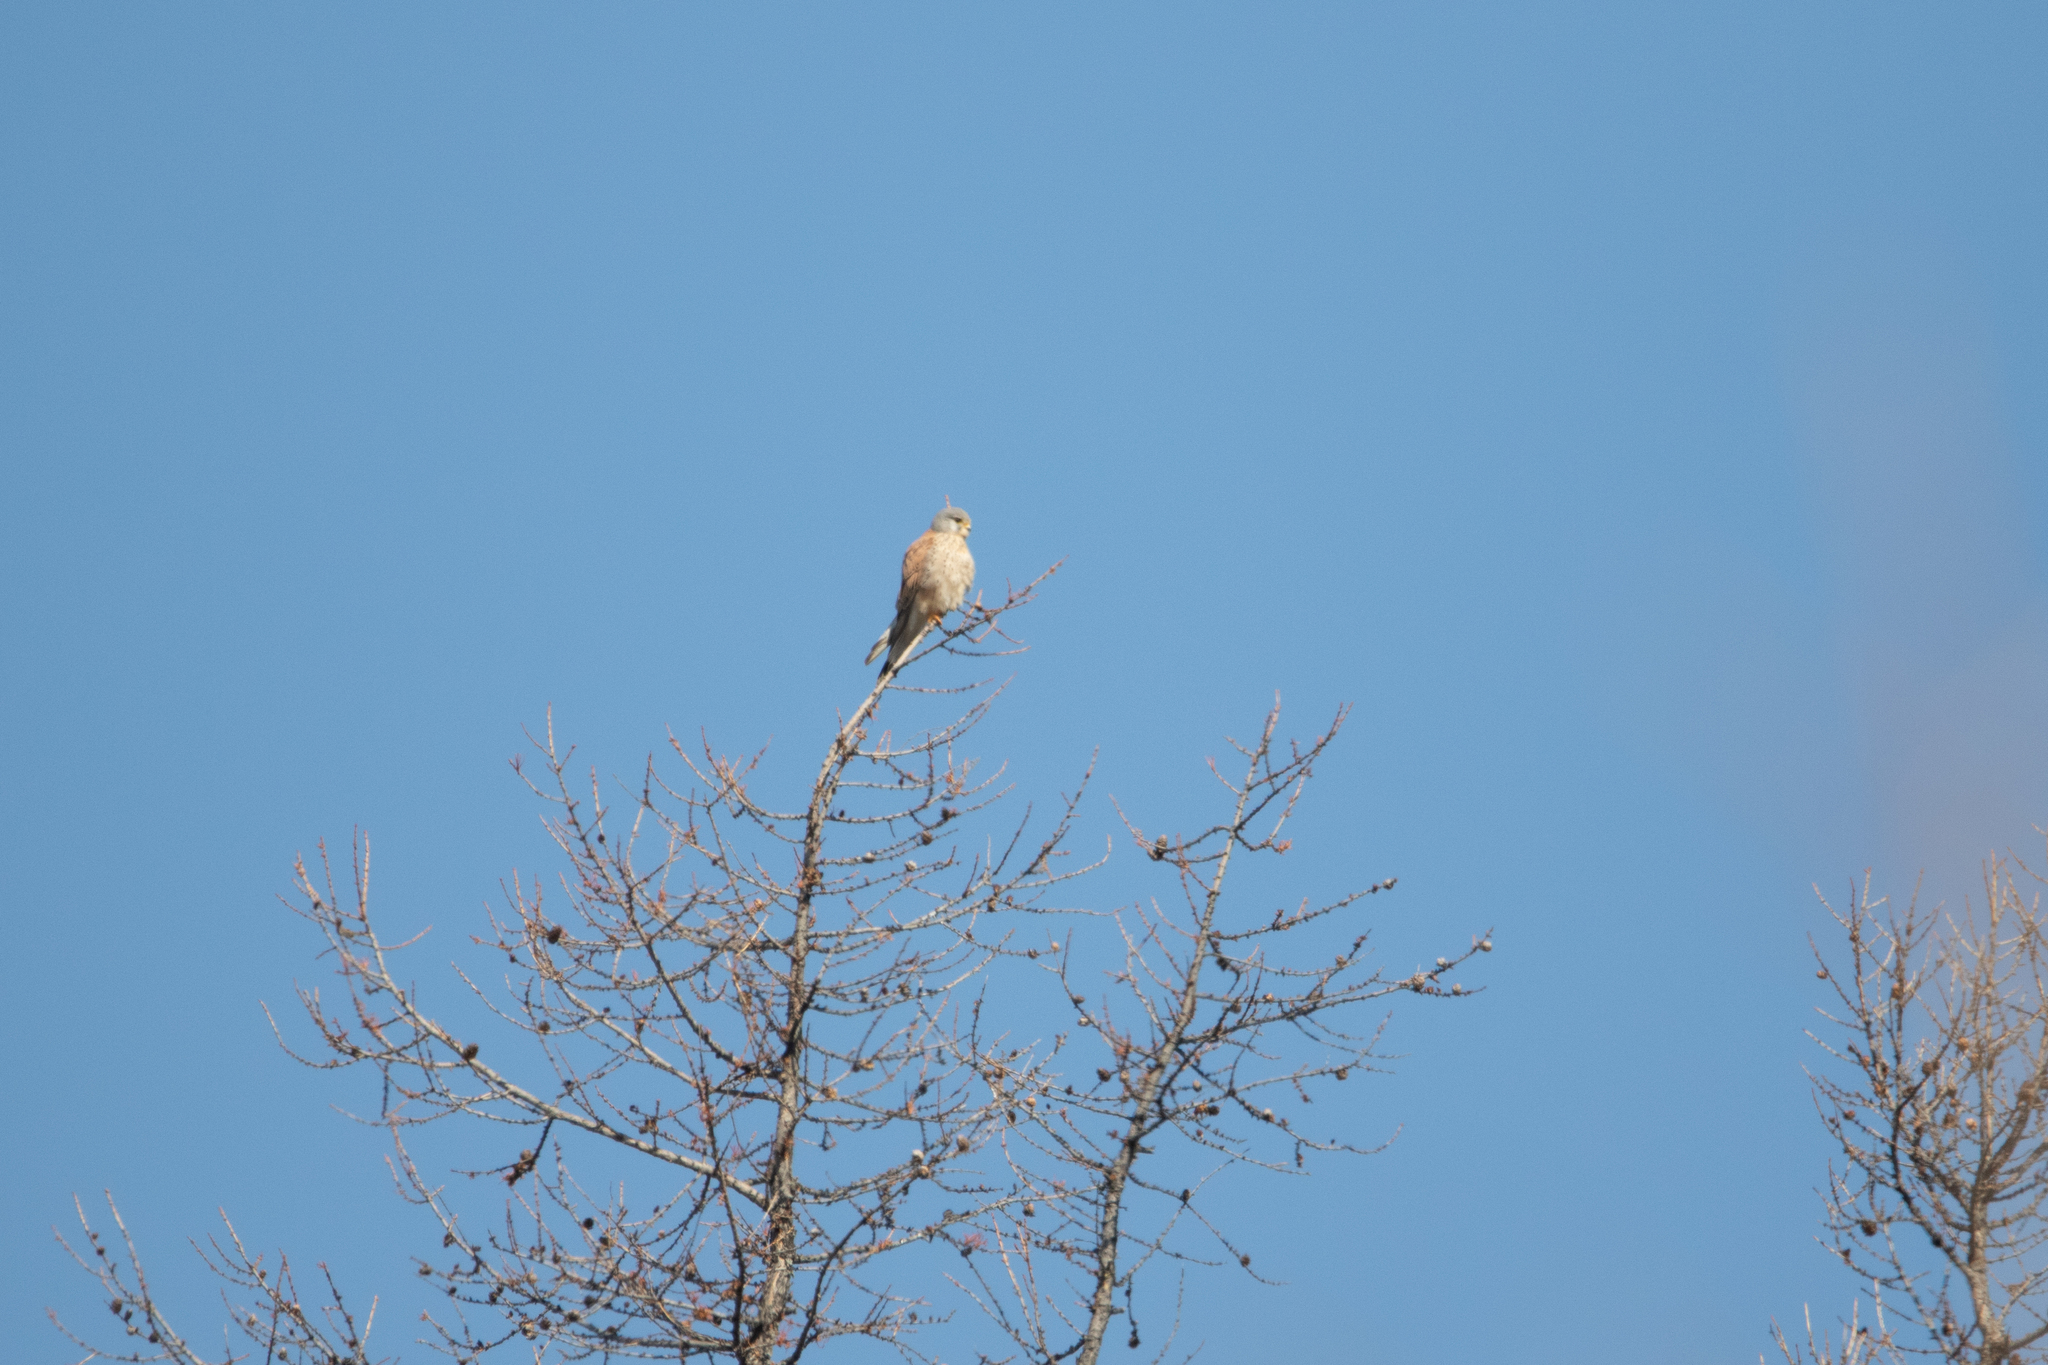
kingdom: Animalia
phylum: Chordata
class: Aves
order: Falconiformes
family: Falconidae
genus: Falco
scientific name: Falco tinnunculus
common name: Common kestrel
